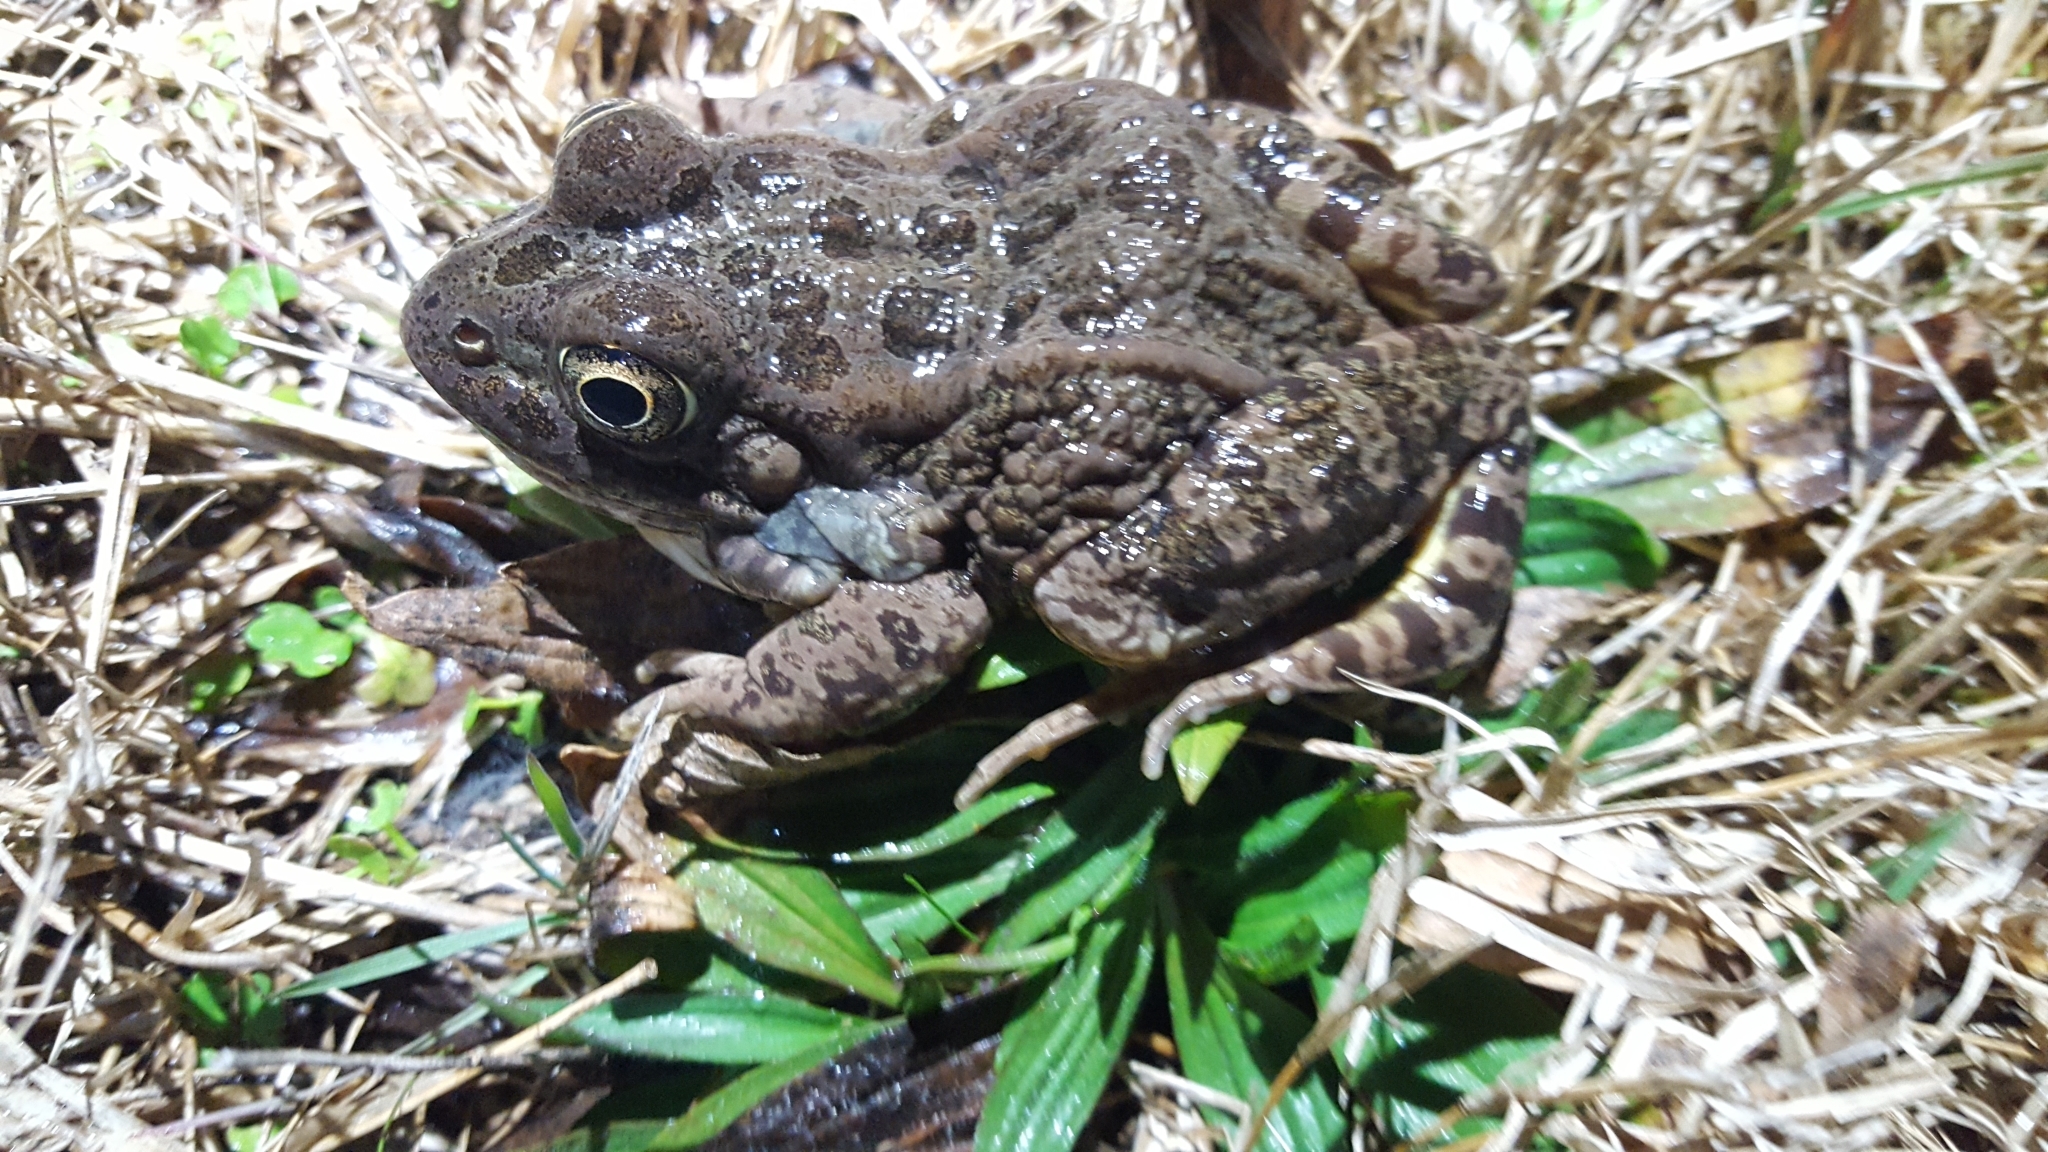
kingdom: Animalia
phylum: Chordata
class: Amphibia
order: Anura
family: Ranidae
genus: Lithobates
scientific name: Lithobates areolatus
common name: Crawfish frog
